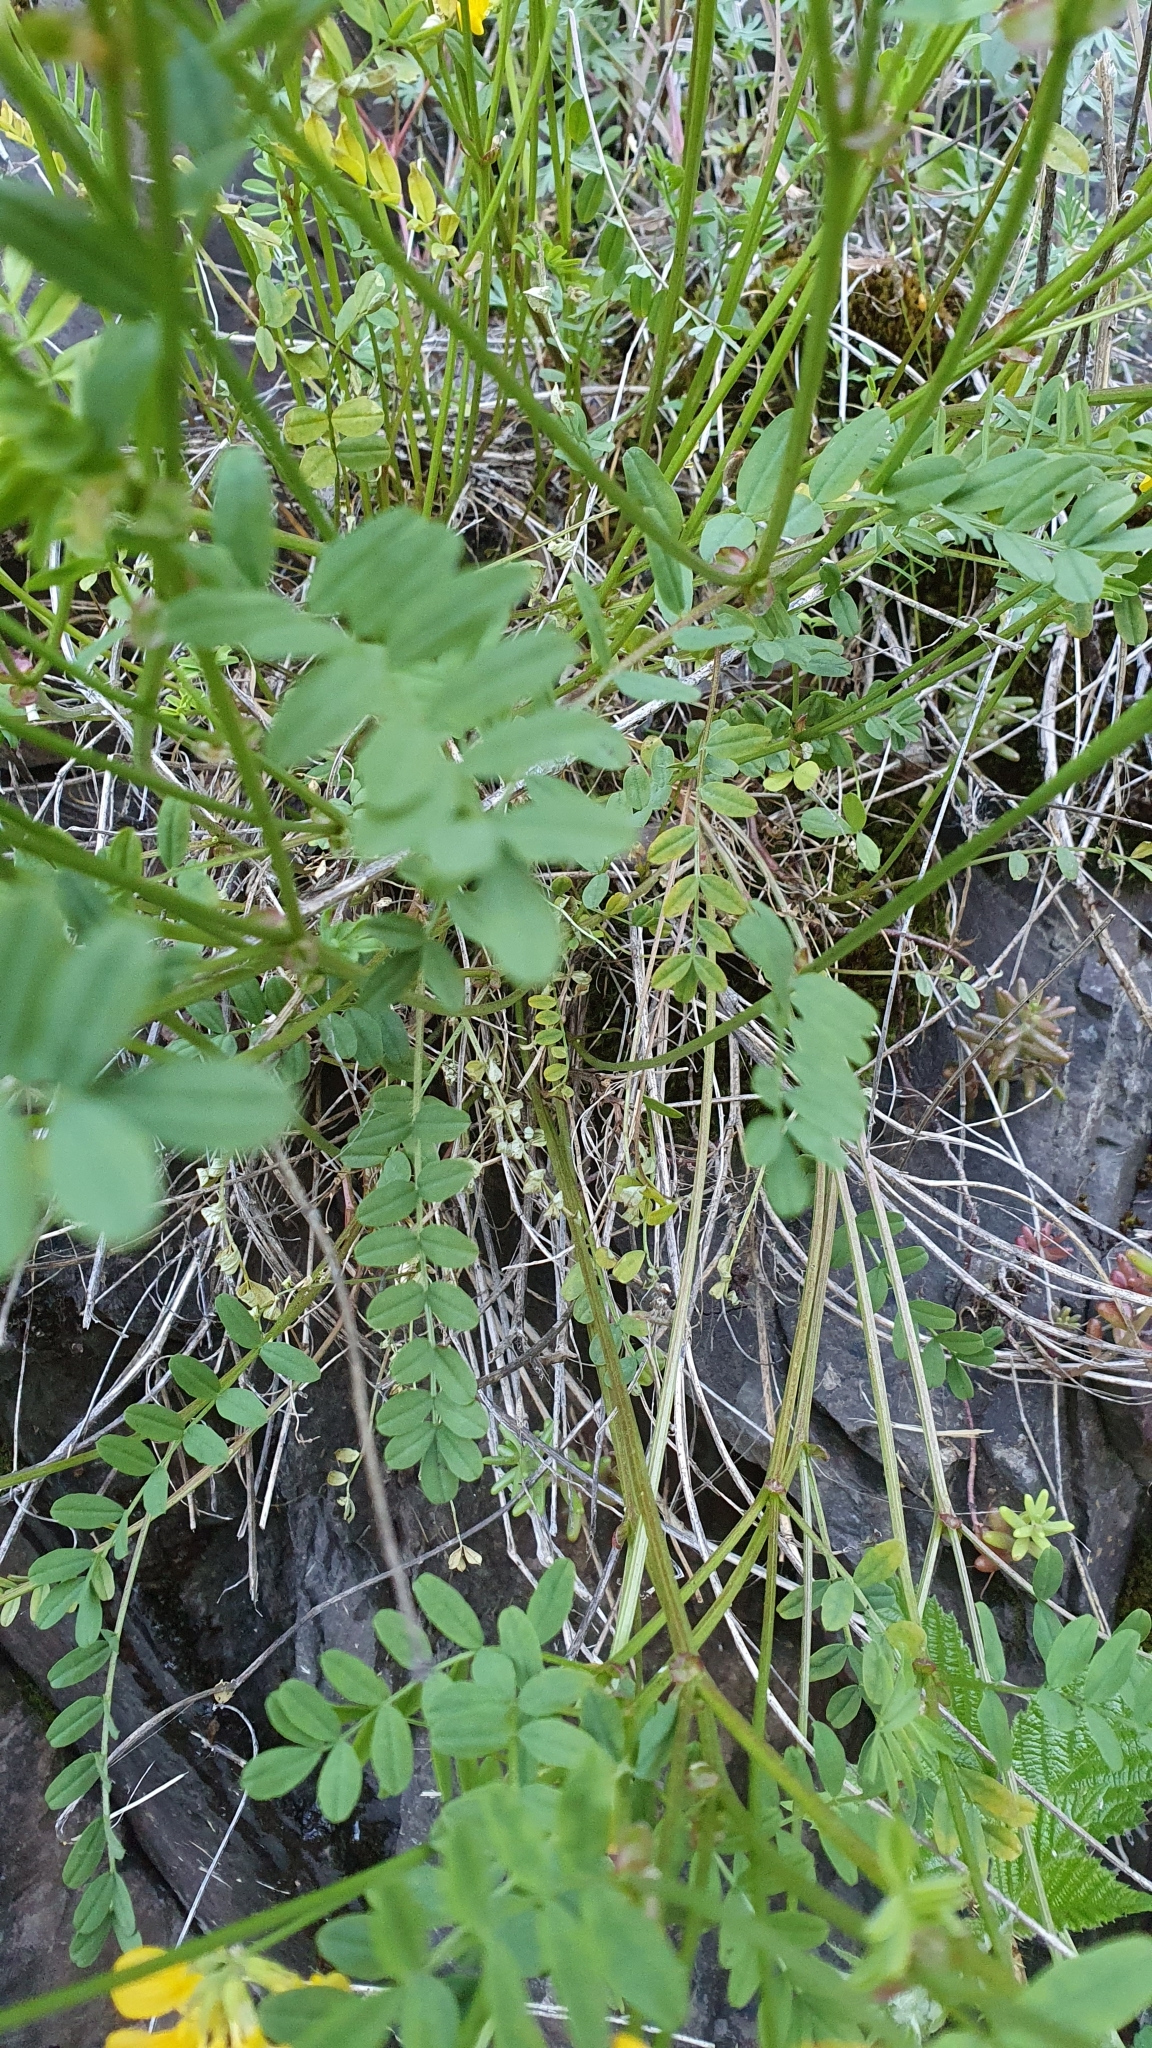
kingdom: Plantae
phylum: Tracheophyta
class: Magnoliopsida
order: Fabales
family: Fabaceae
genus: Hippocrepis
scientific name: Hippocrepis comosa
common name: Horseshoe vetch
